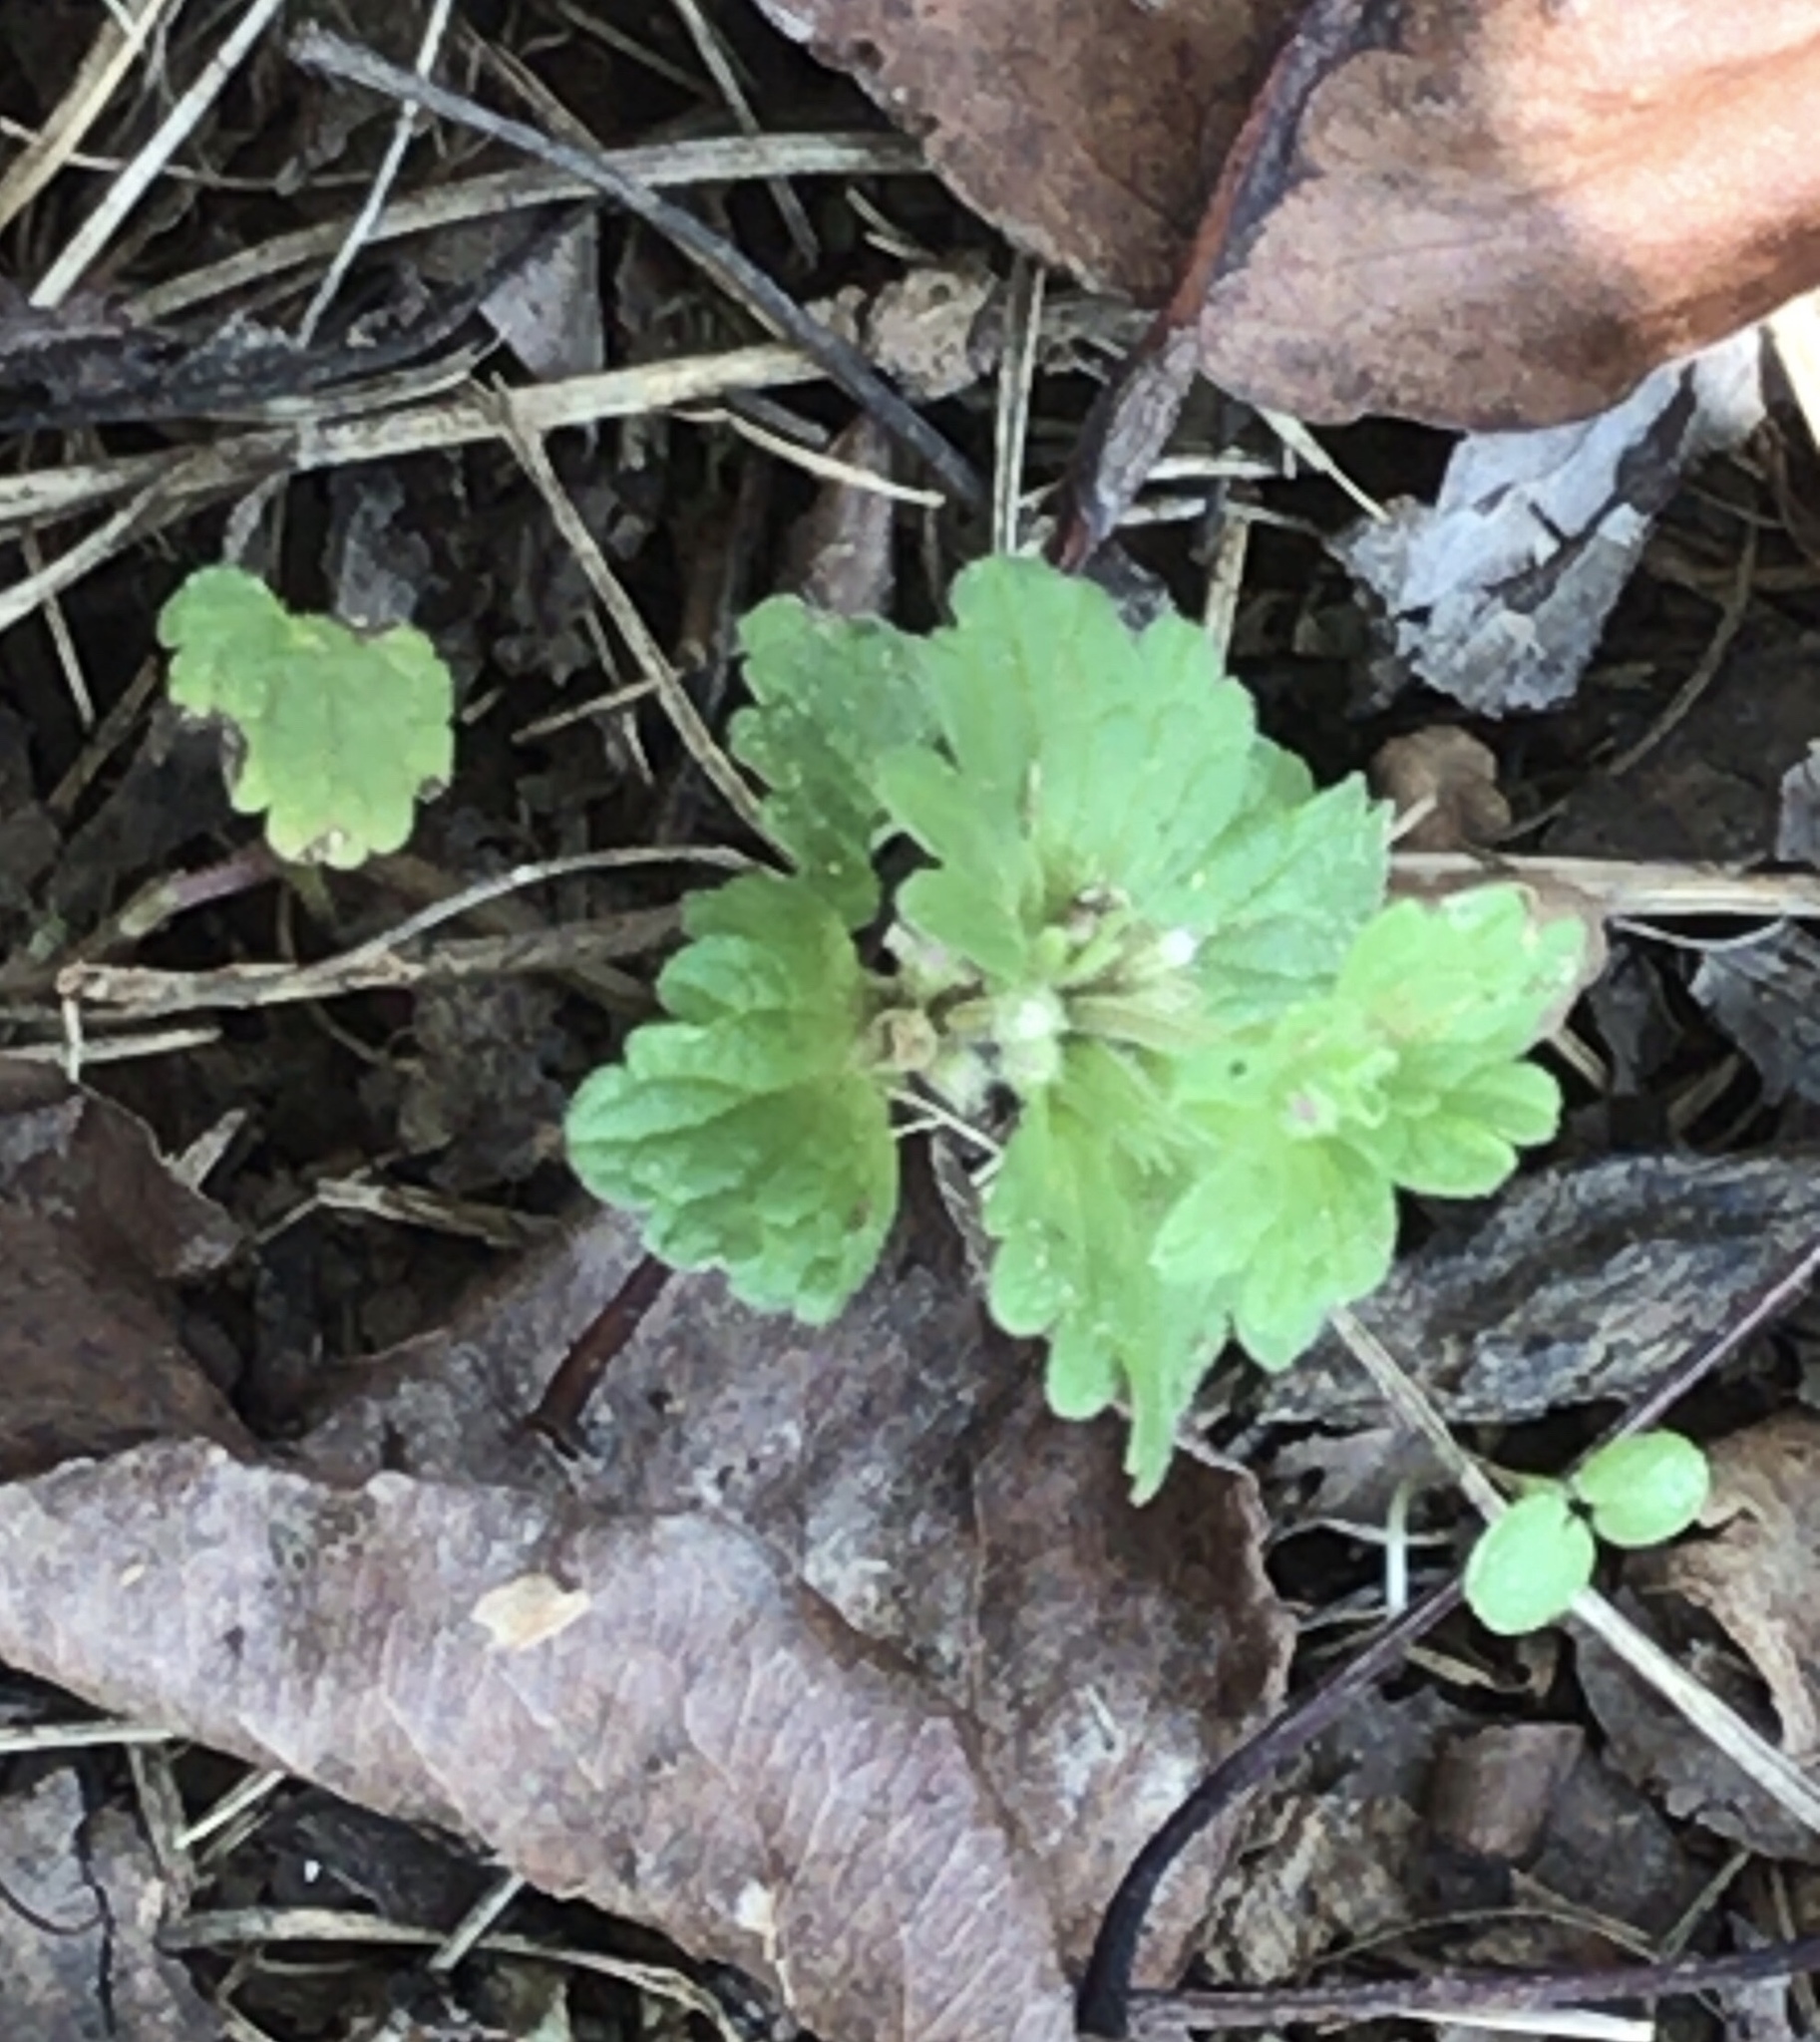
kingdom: Plantae
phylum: Tracheophyta
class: Magnoliopsida
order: Lamiales
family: Lamiaceae
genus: Lamium
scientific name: Lamium amplexicaule
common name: Henbit dead-nettle
